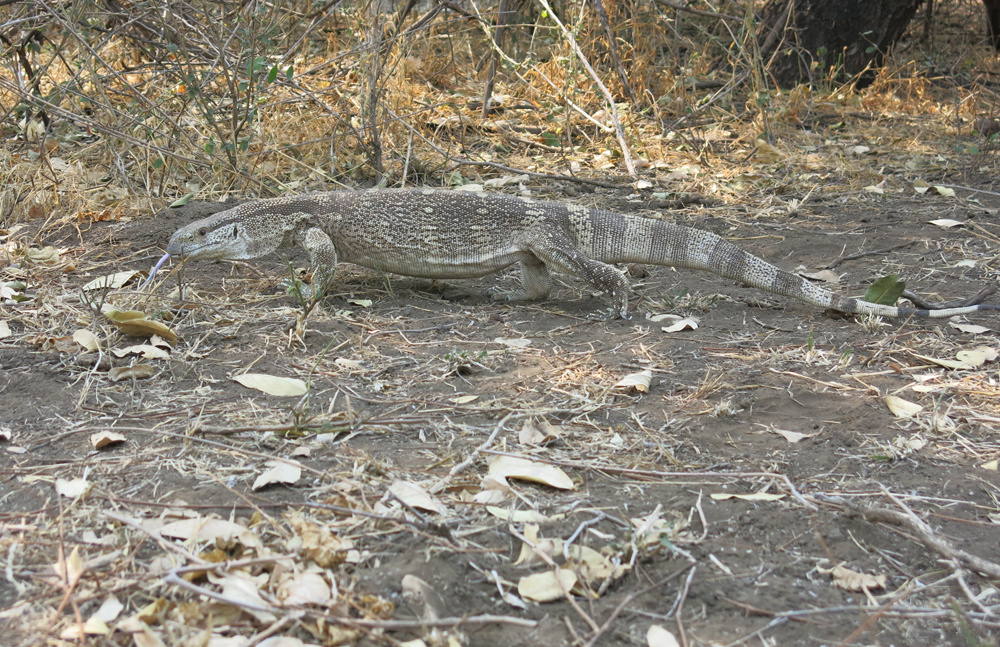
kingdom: Animalia
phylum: Chordata
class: Squamata
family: Varanidae
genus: Varanus
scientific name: Varanus albigularis
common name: White-throated monitor
